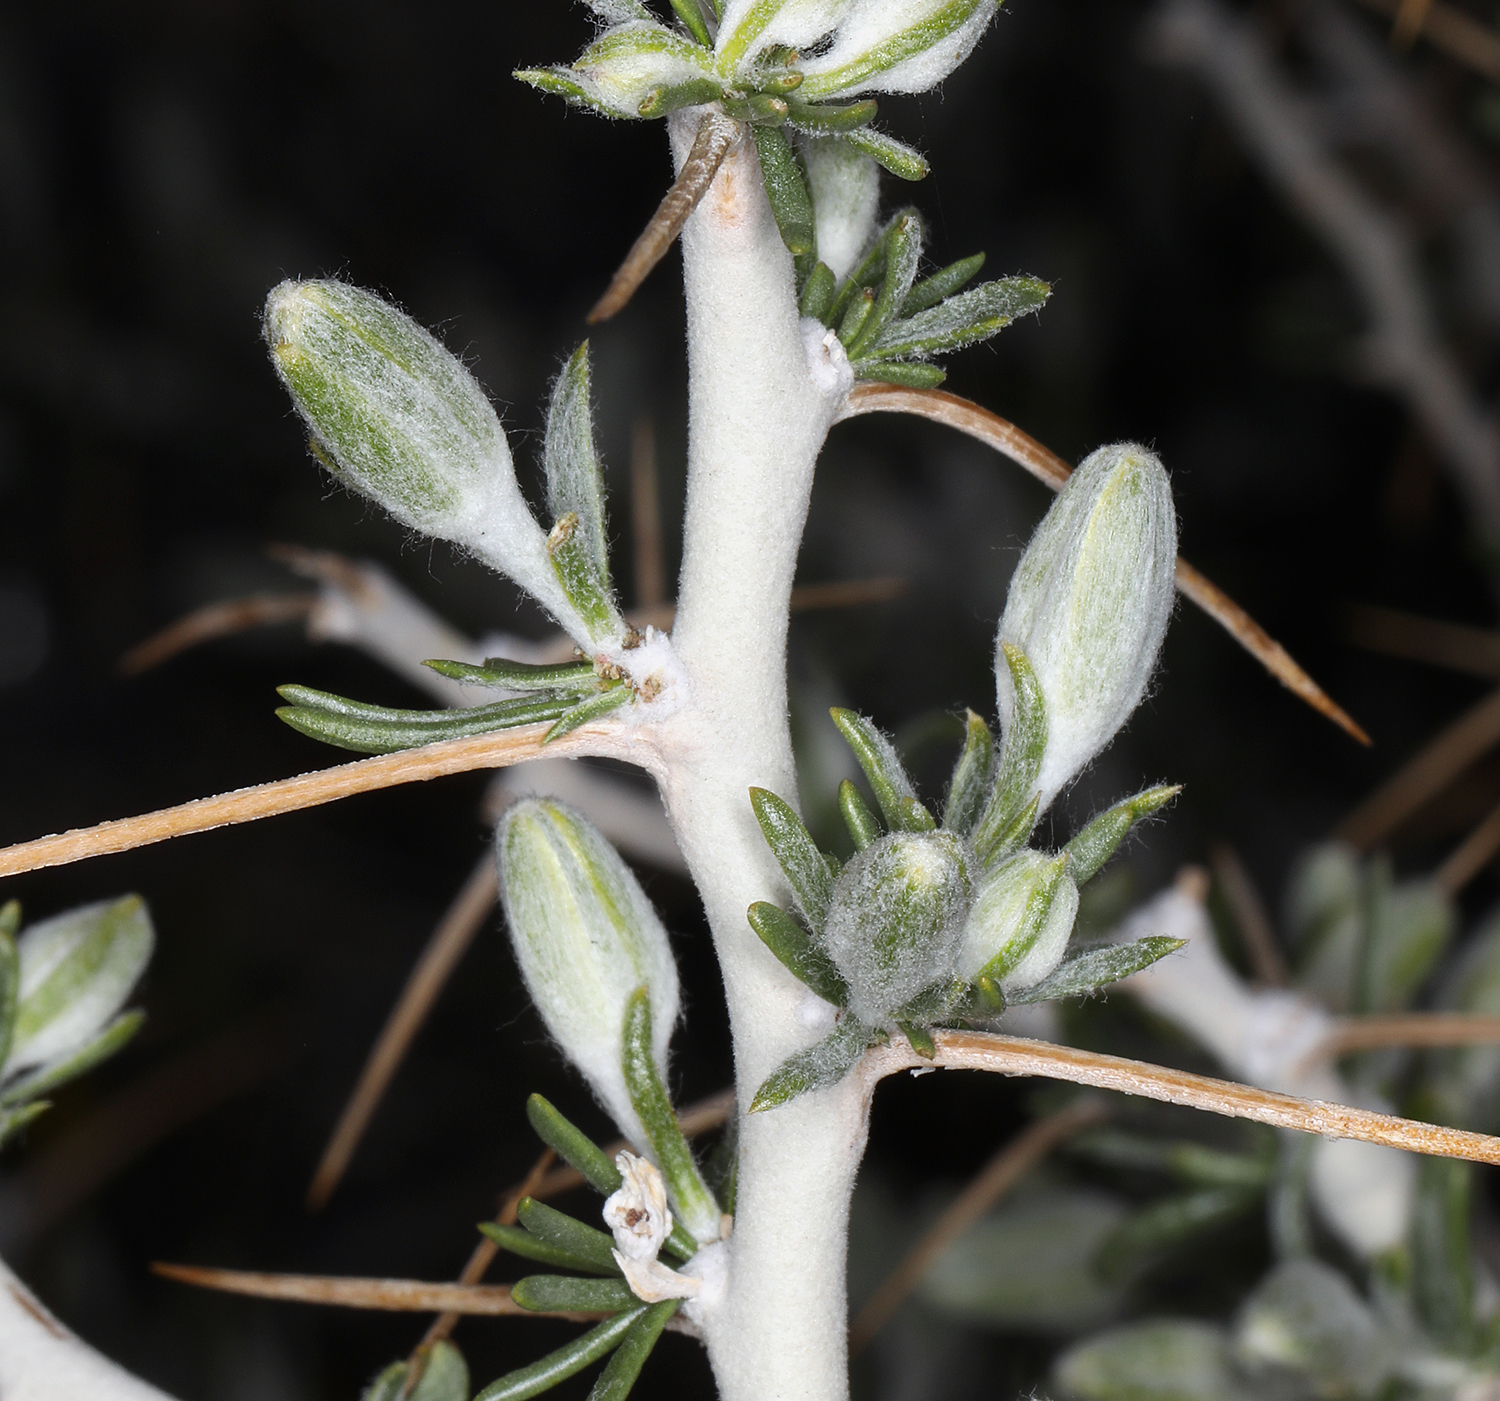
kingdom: Plantae
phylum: Tracheophyta
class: Magnoliopsida
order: Asterales
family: Asteraceae
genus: Tetradymia
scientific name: Tetradymia axillaris
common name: Long-spine horsebrush
